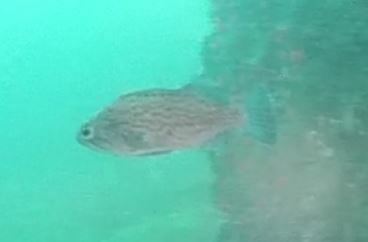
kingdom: Animalia
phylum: Chordata
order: Scorpaeniformes
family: Sebastidae
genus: Sebastes
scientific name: Sebastes mystinus
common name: Blue rockfish
